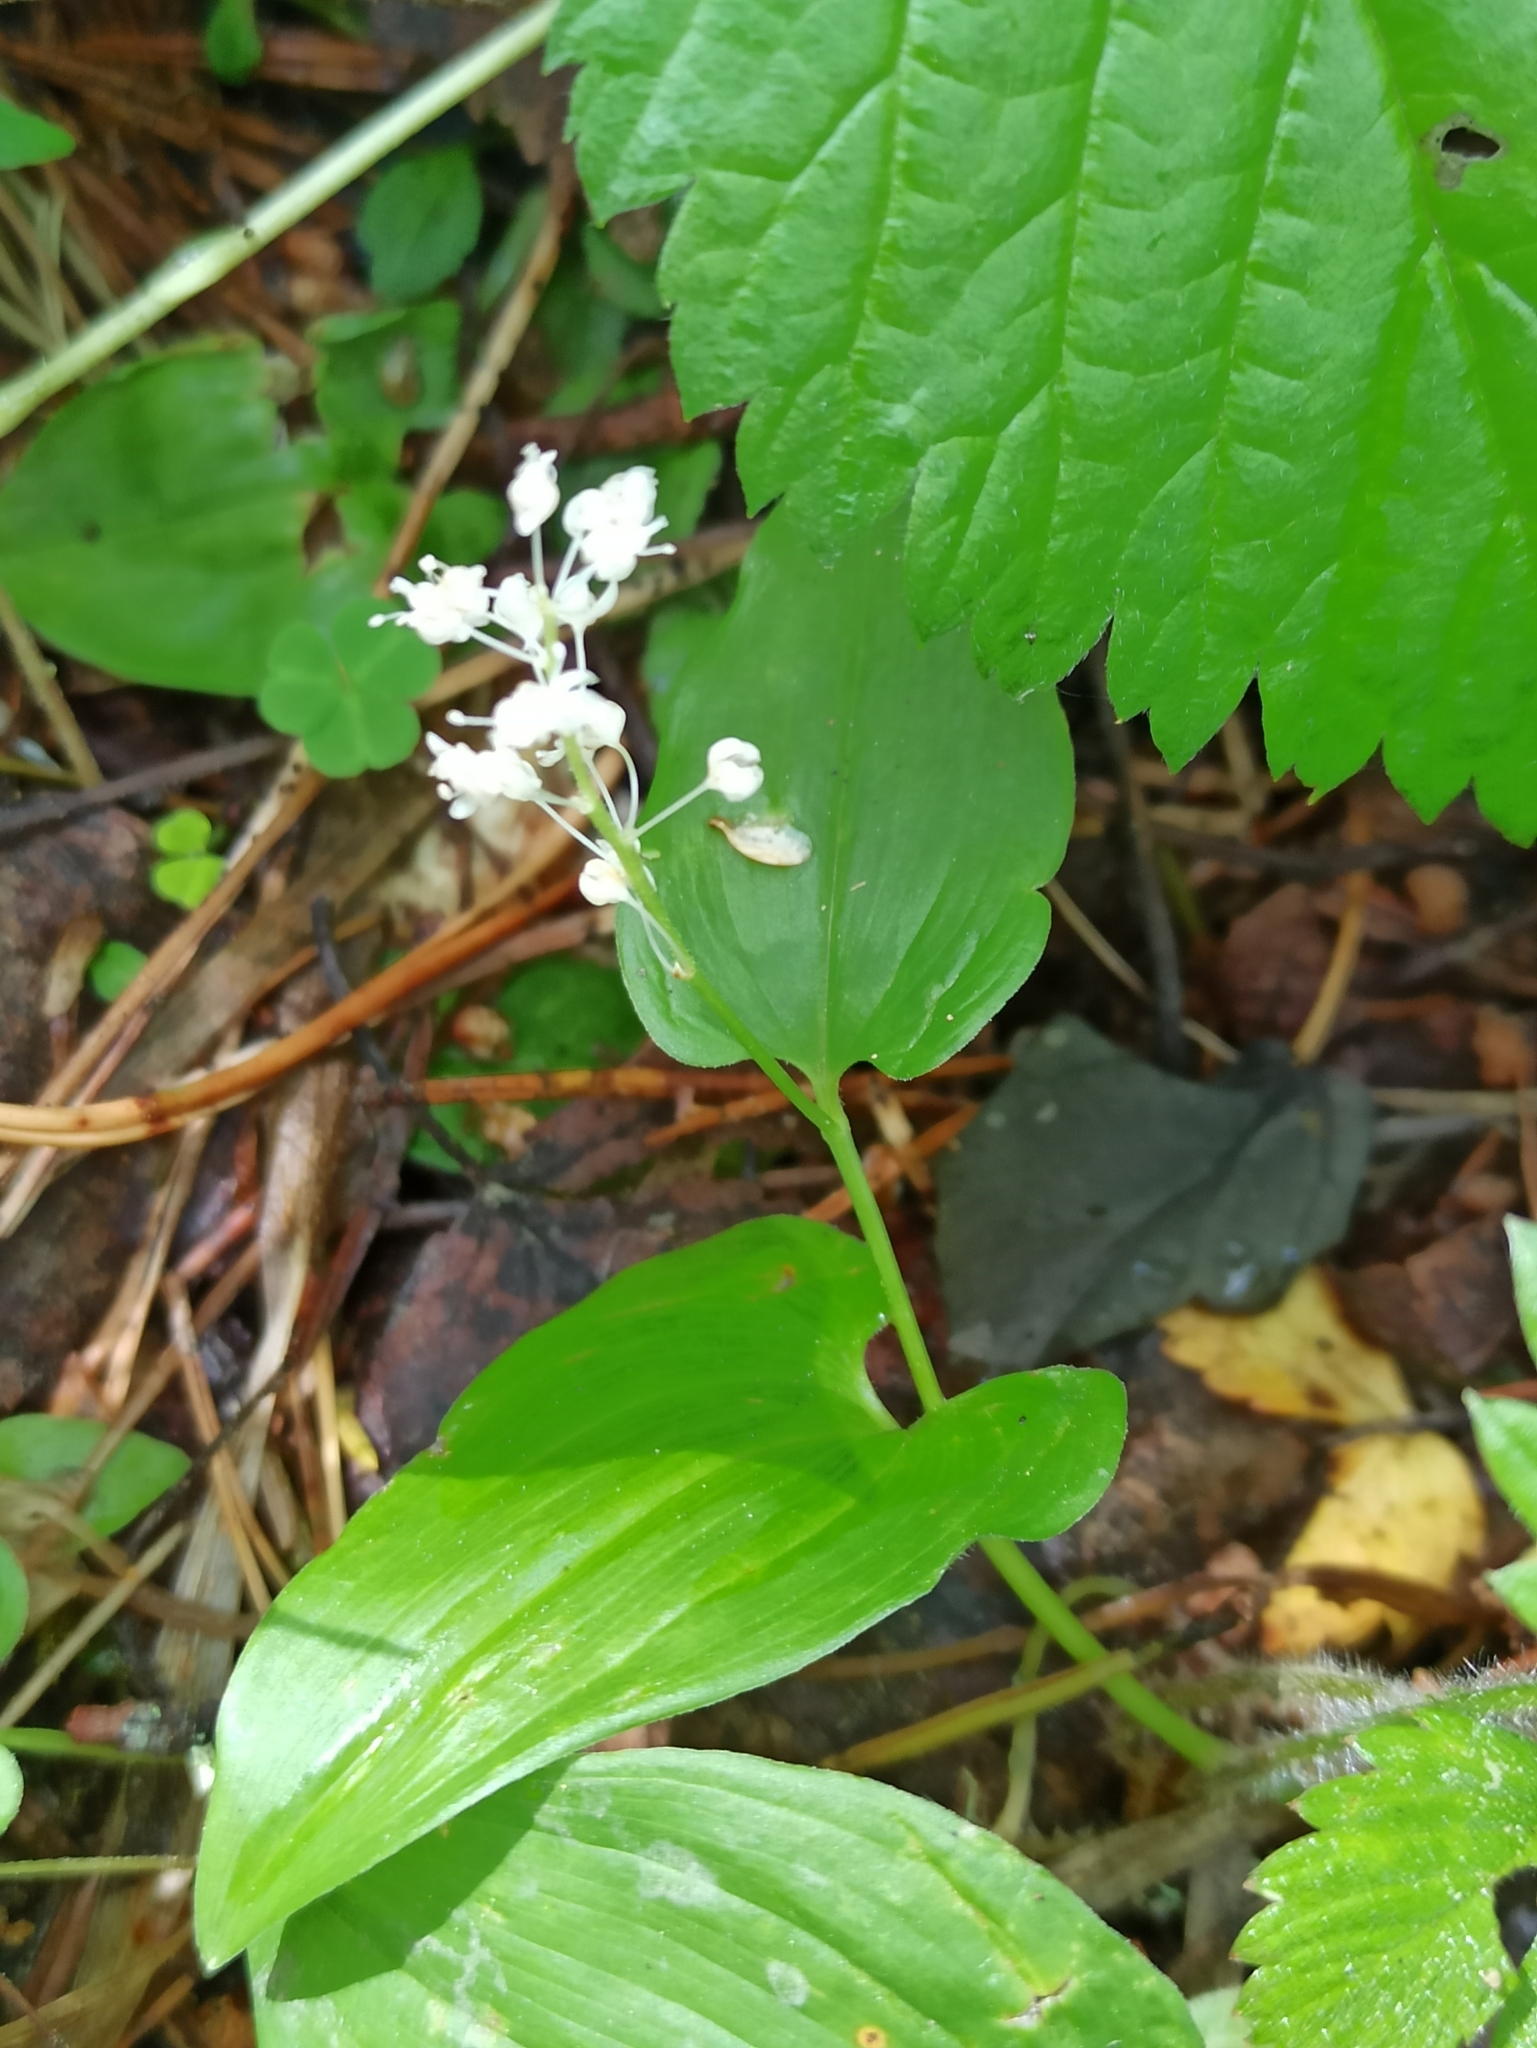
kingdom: Plantae
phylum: Tracheophyta
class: Liliopsida
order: Asparagales
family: Asparagaceae
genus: Maianthemum
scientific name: Maianthemum bifolium
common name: May lily
